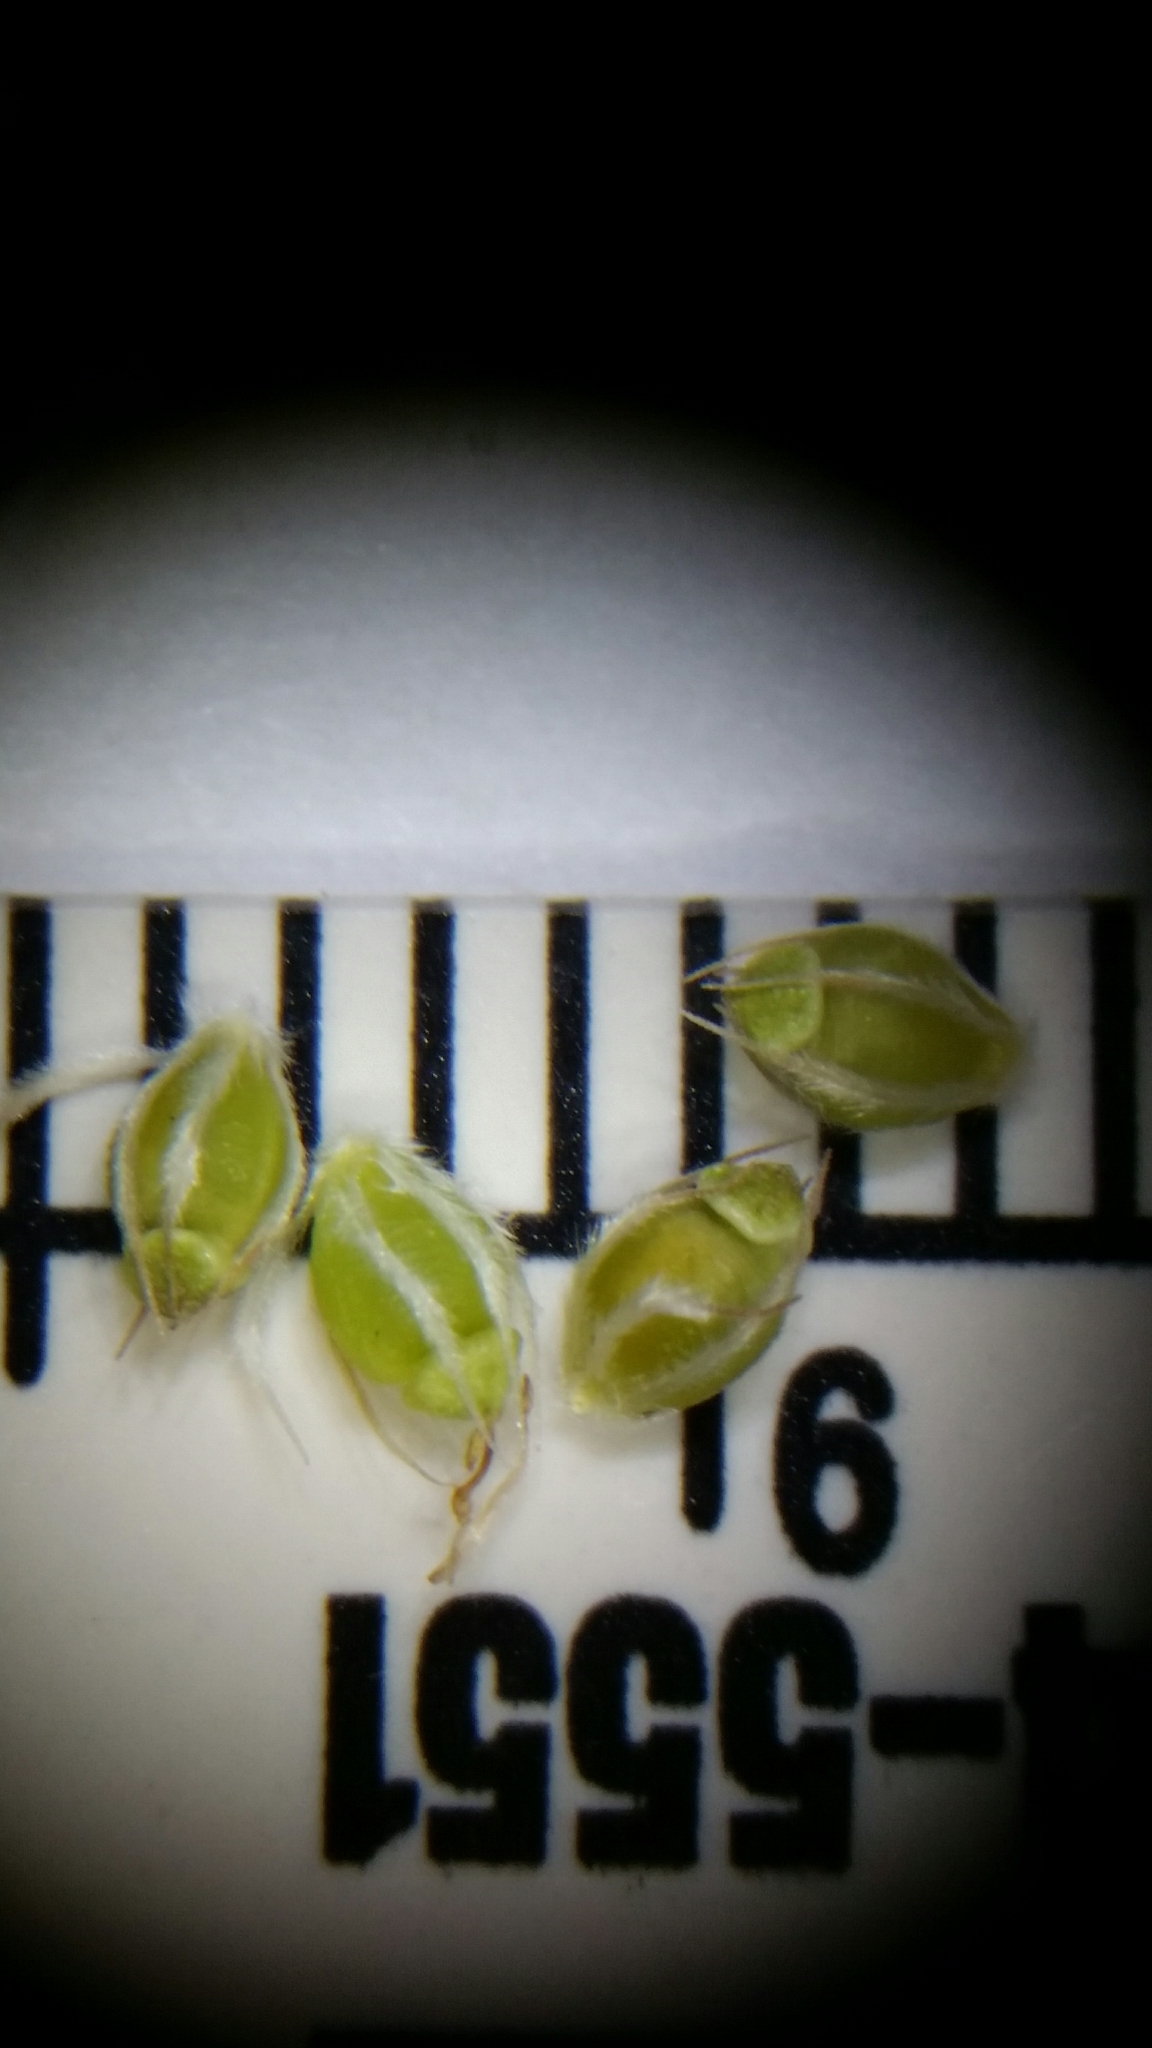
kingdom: Plantae
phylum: Tracheophyta
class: Liliopsida
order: Poales
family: Cyperaceae
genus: Rhynchospora
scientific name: Rhynchospora intermedia
